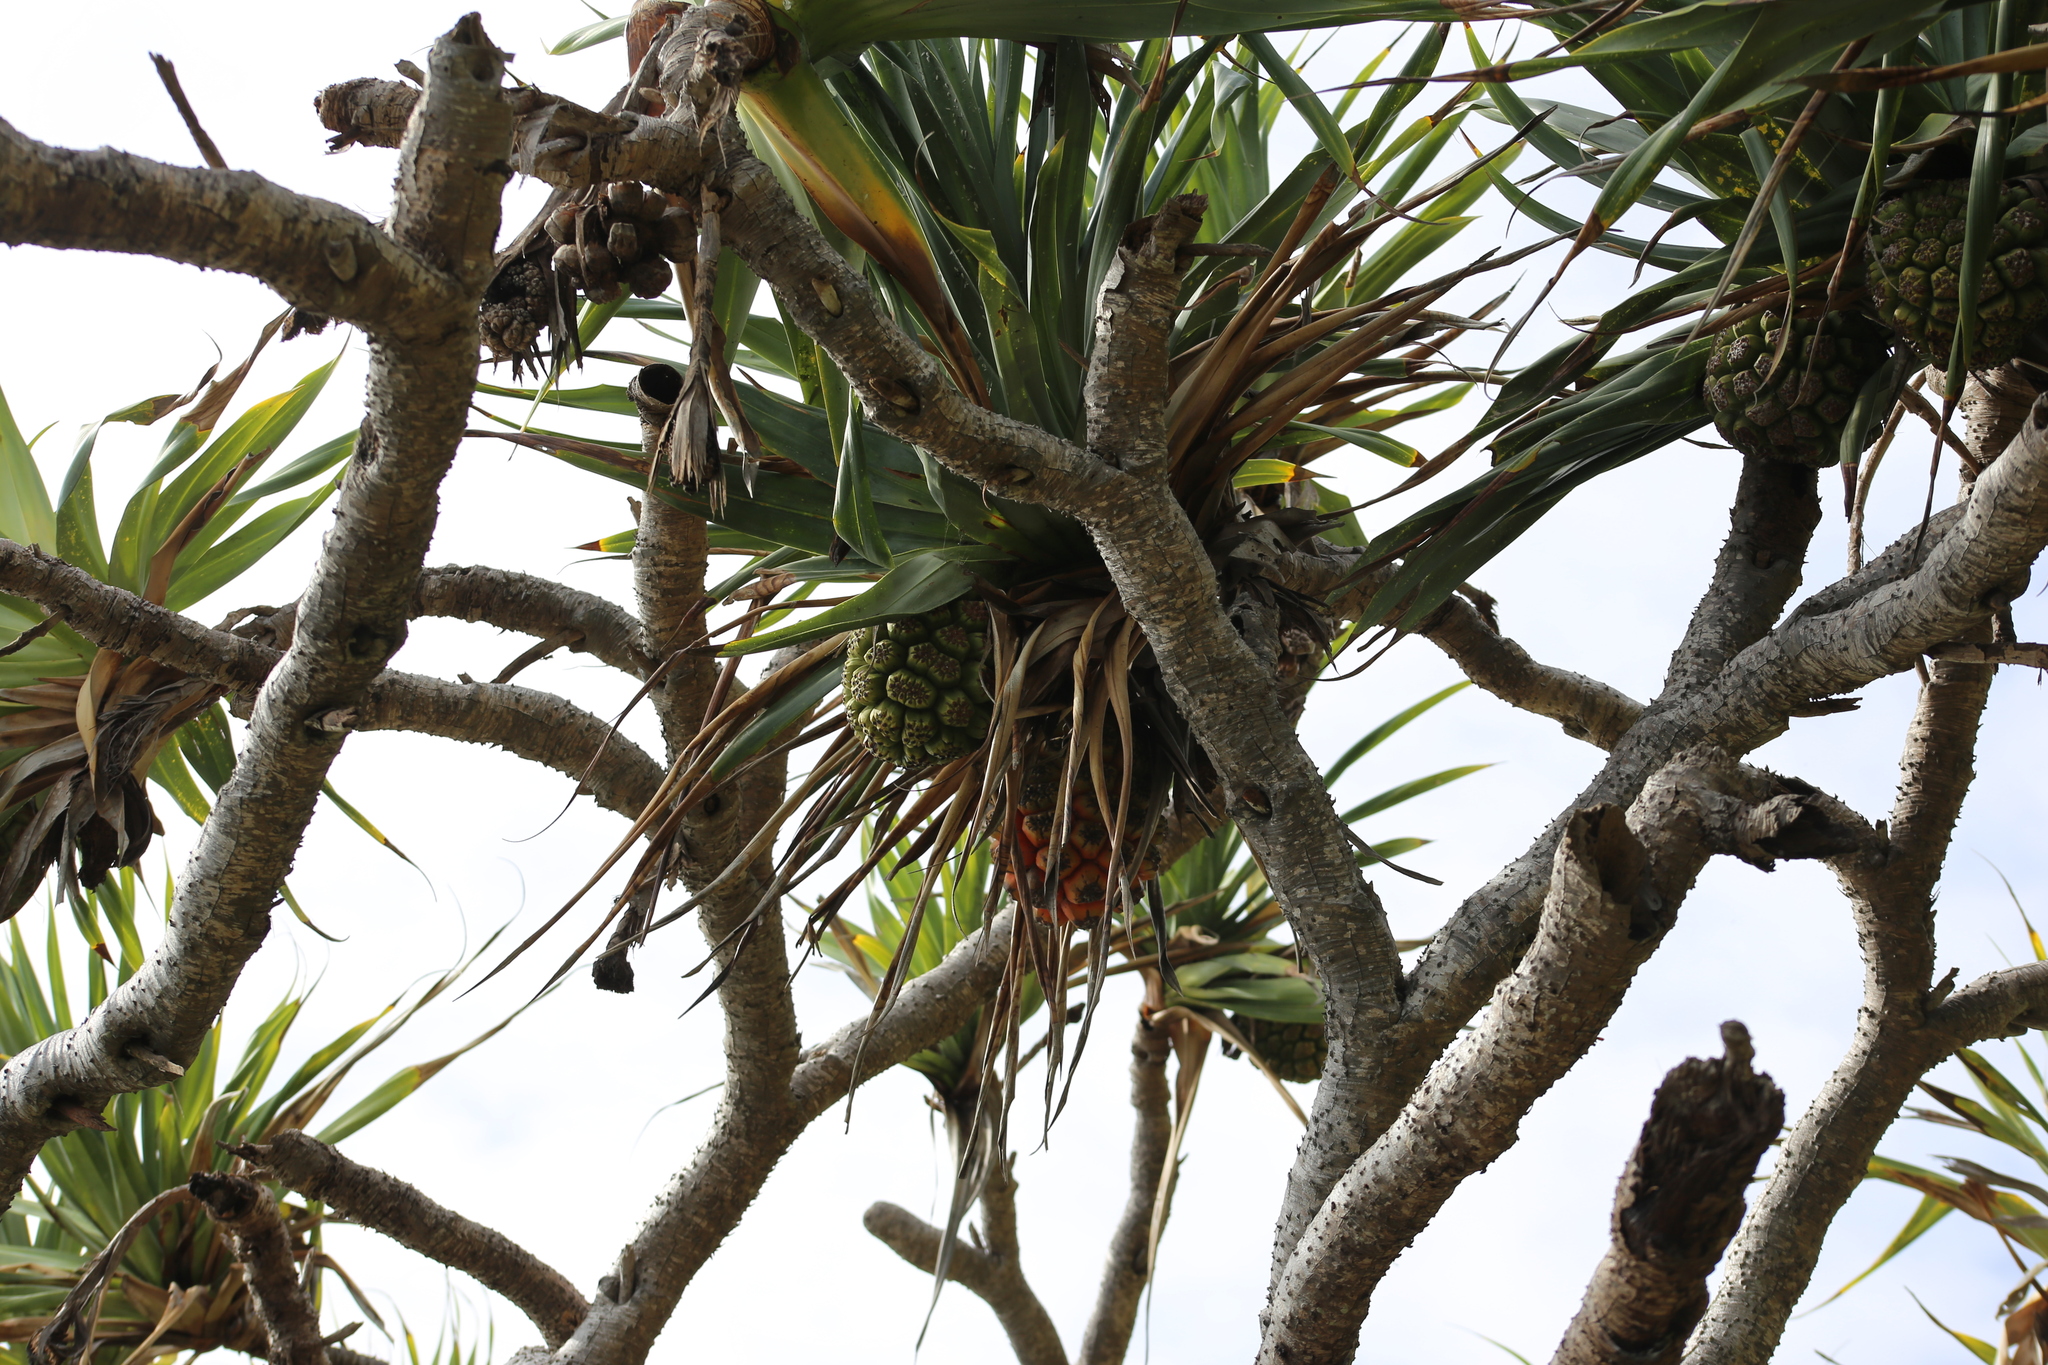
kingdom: Plantae
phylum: Tracheophyta
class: Liliopsida
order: Pandanales
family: Pandanaceae
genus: Pandanus
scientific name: Pandanus tectorius
